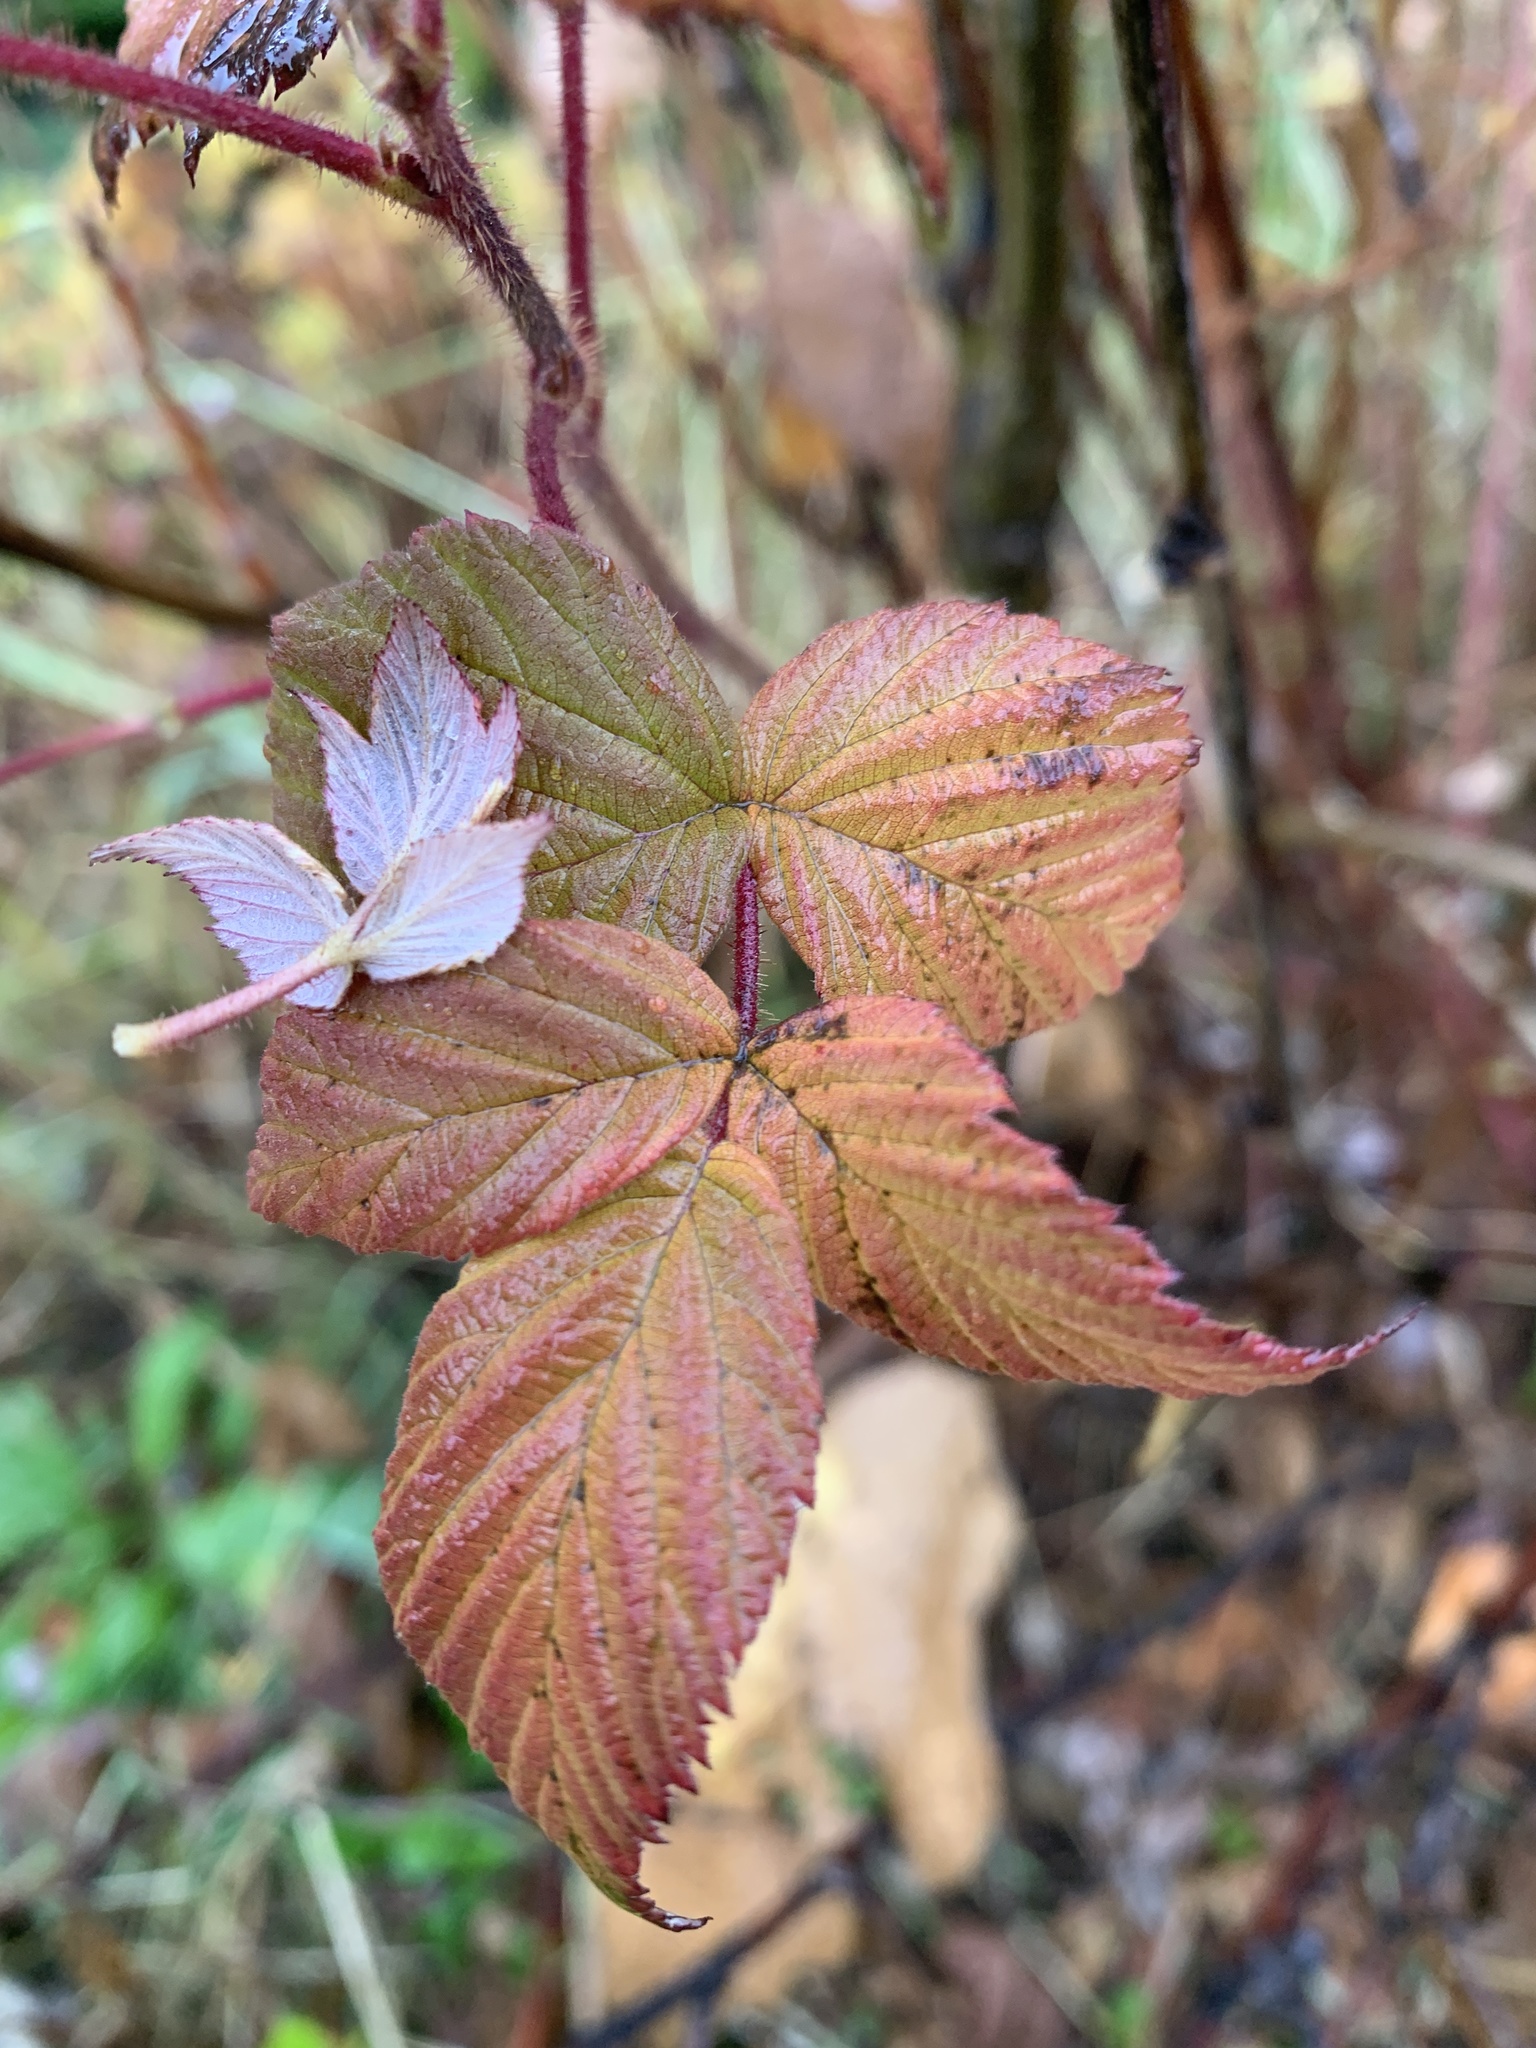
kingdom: Plantae
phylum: Tracheophyta
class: Magnoliopsida
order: Rosales
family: Rosaceae
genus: Rubus
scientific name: Rubus idaeus
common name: Raspberry
